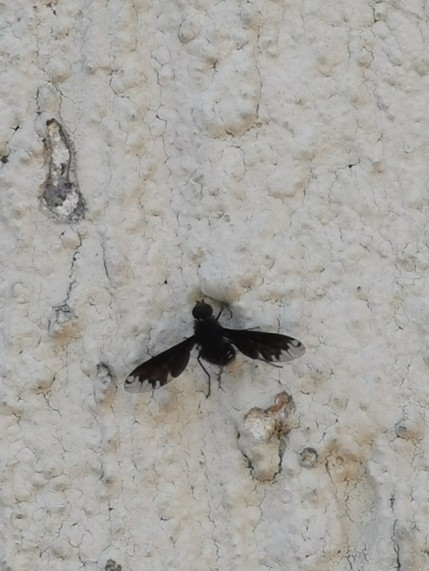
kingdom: Animalia
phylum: Arthropoda
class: Insecta
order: Diptera
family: Bombyliidae
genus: Anthrax
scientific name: Anthrax anthrax
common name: Anthracite bee-fly
